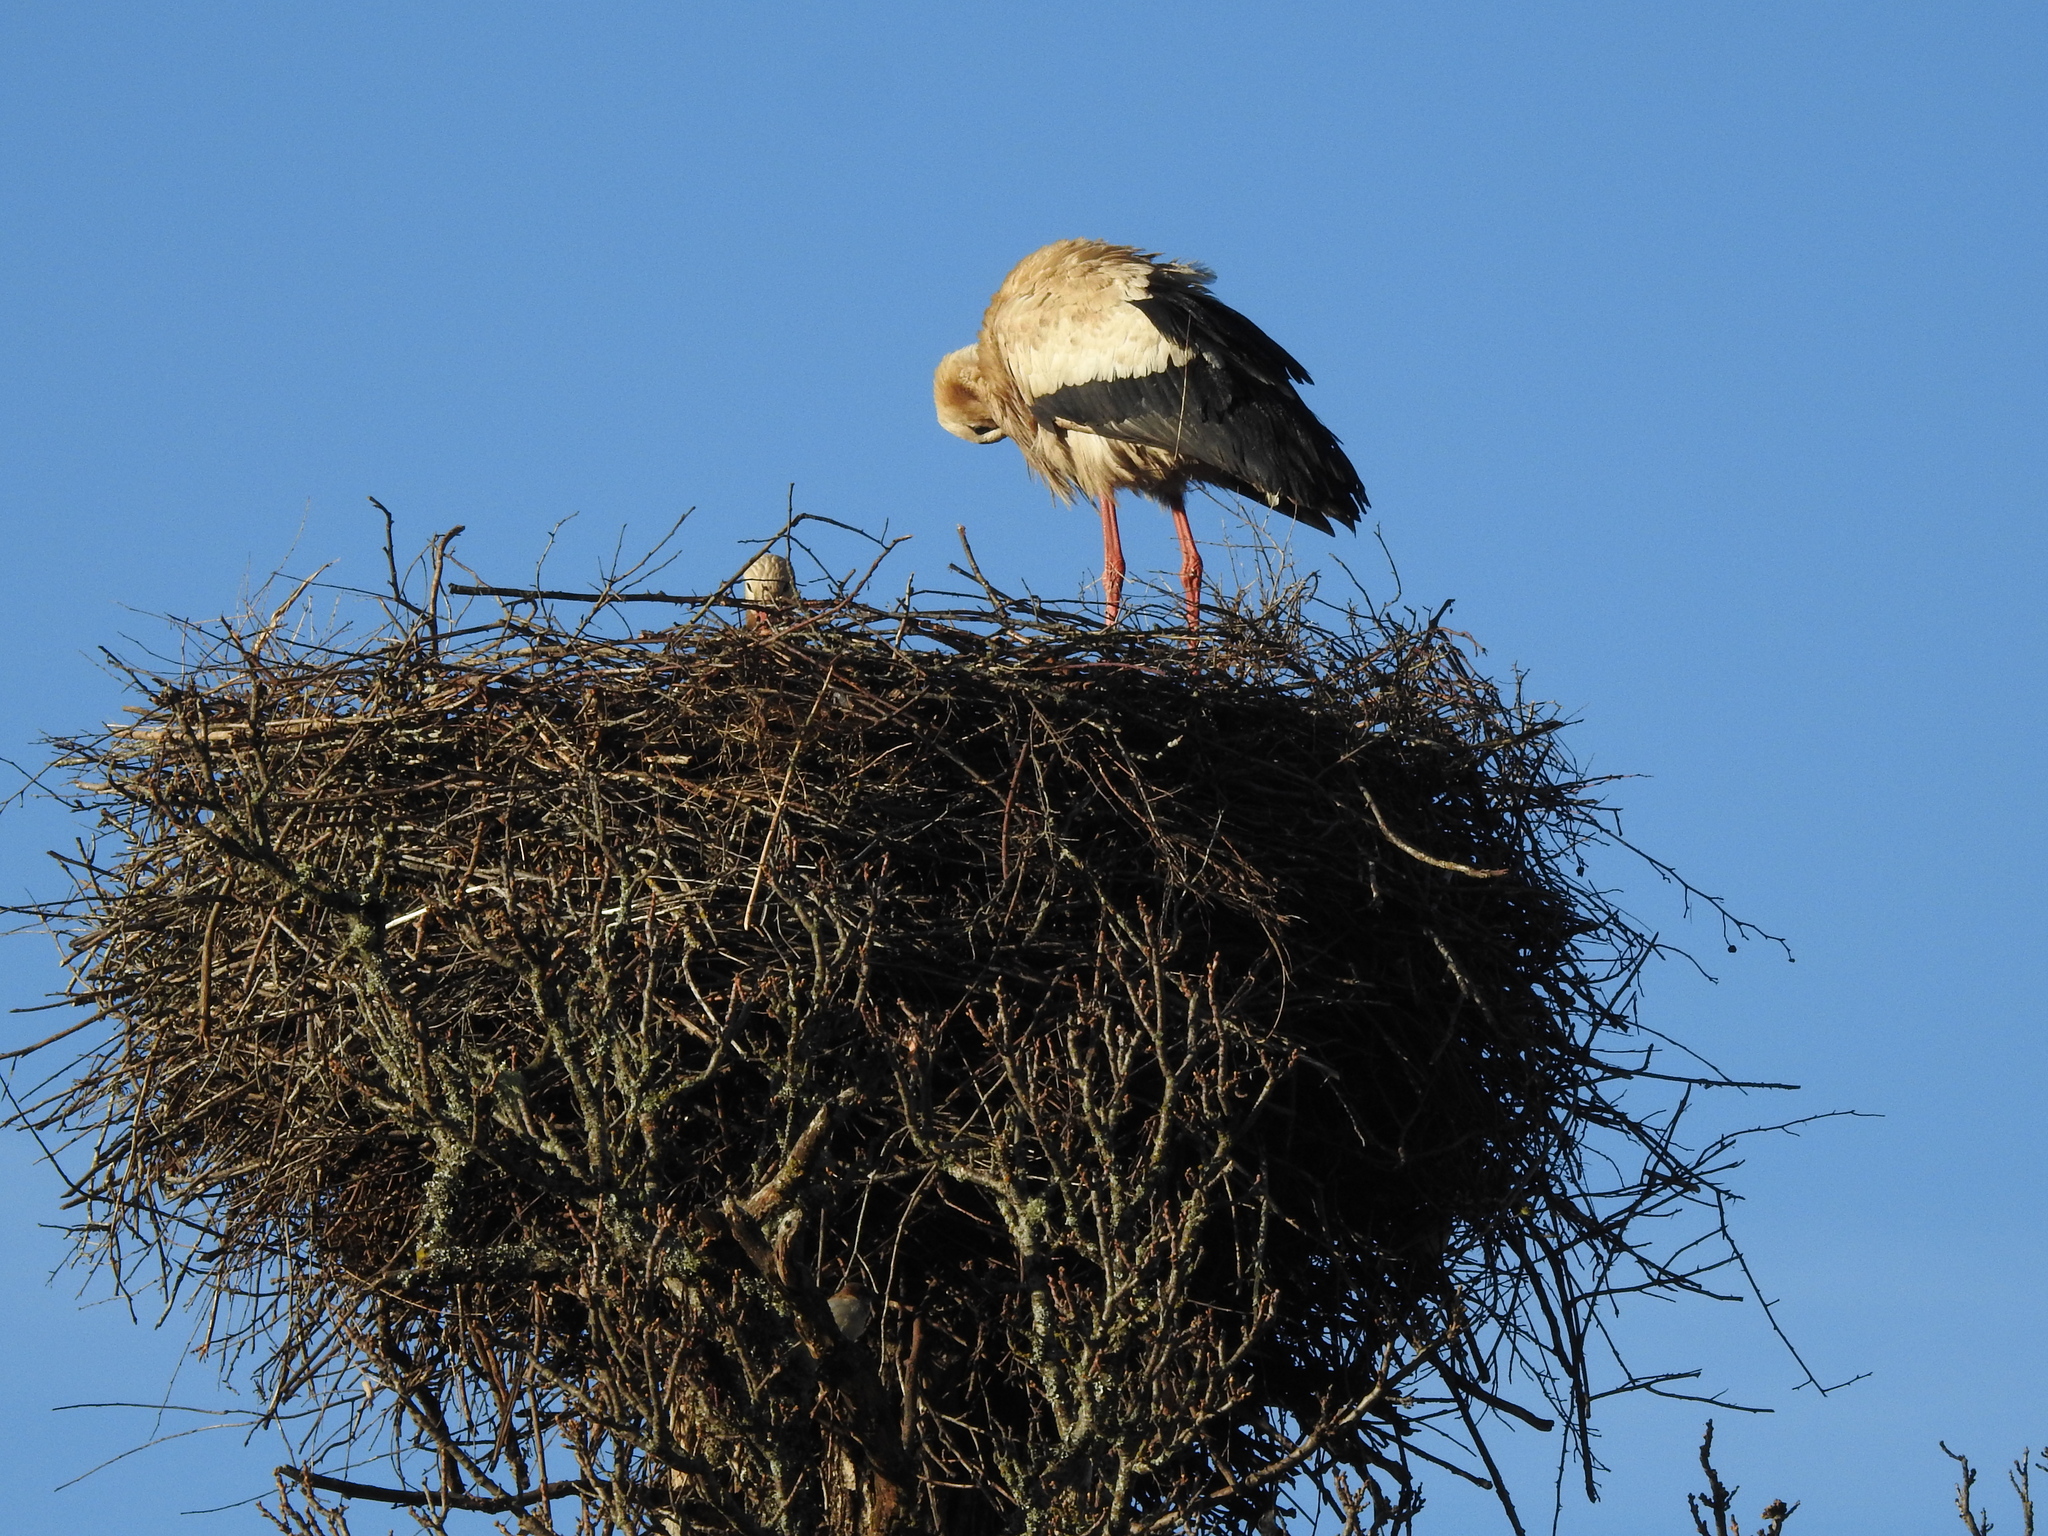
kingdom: Animalia
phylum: Chordata
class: Aves
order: Ciconiiformes
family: Ciconiidae
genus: Ciconia
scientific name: Ciconia ciconia
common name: White stork
